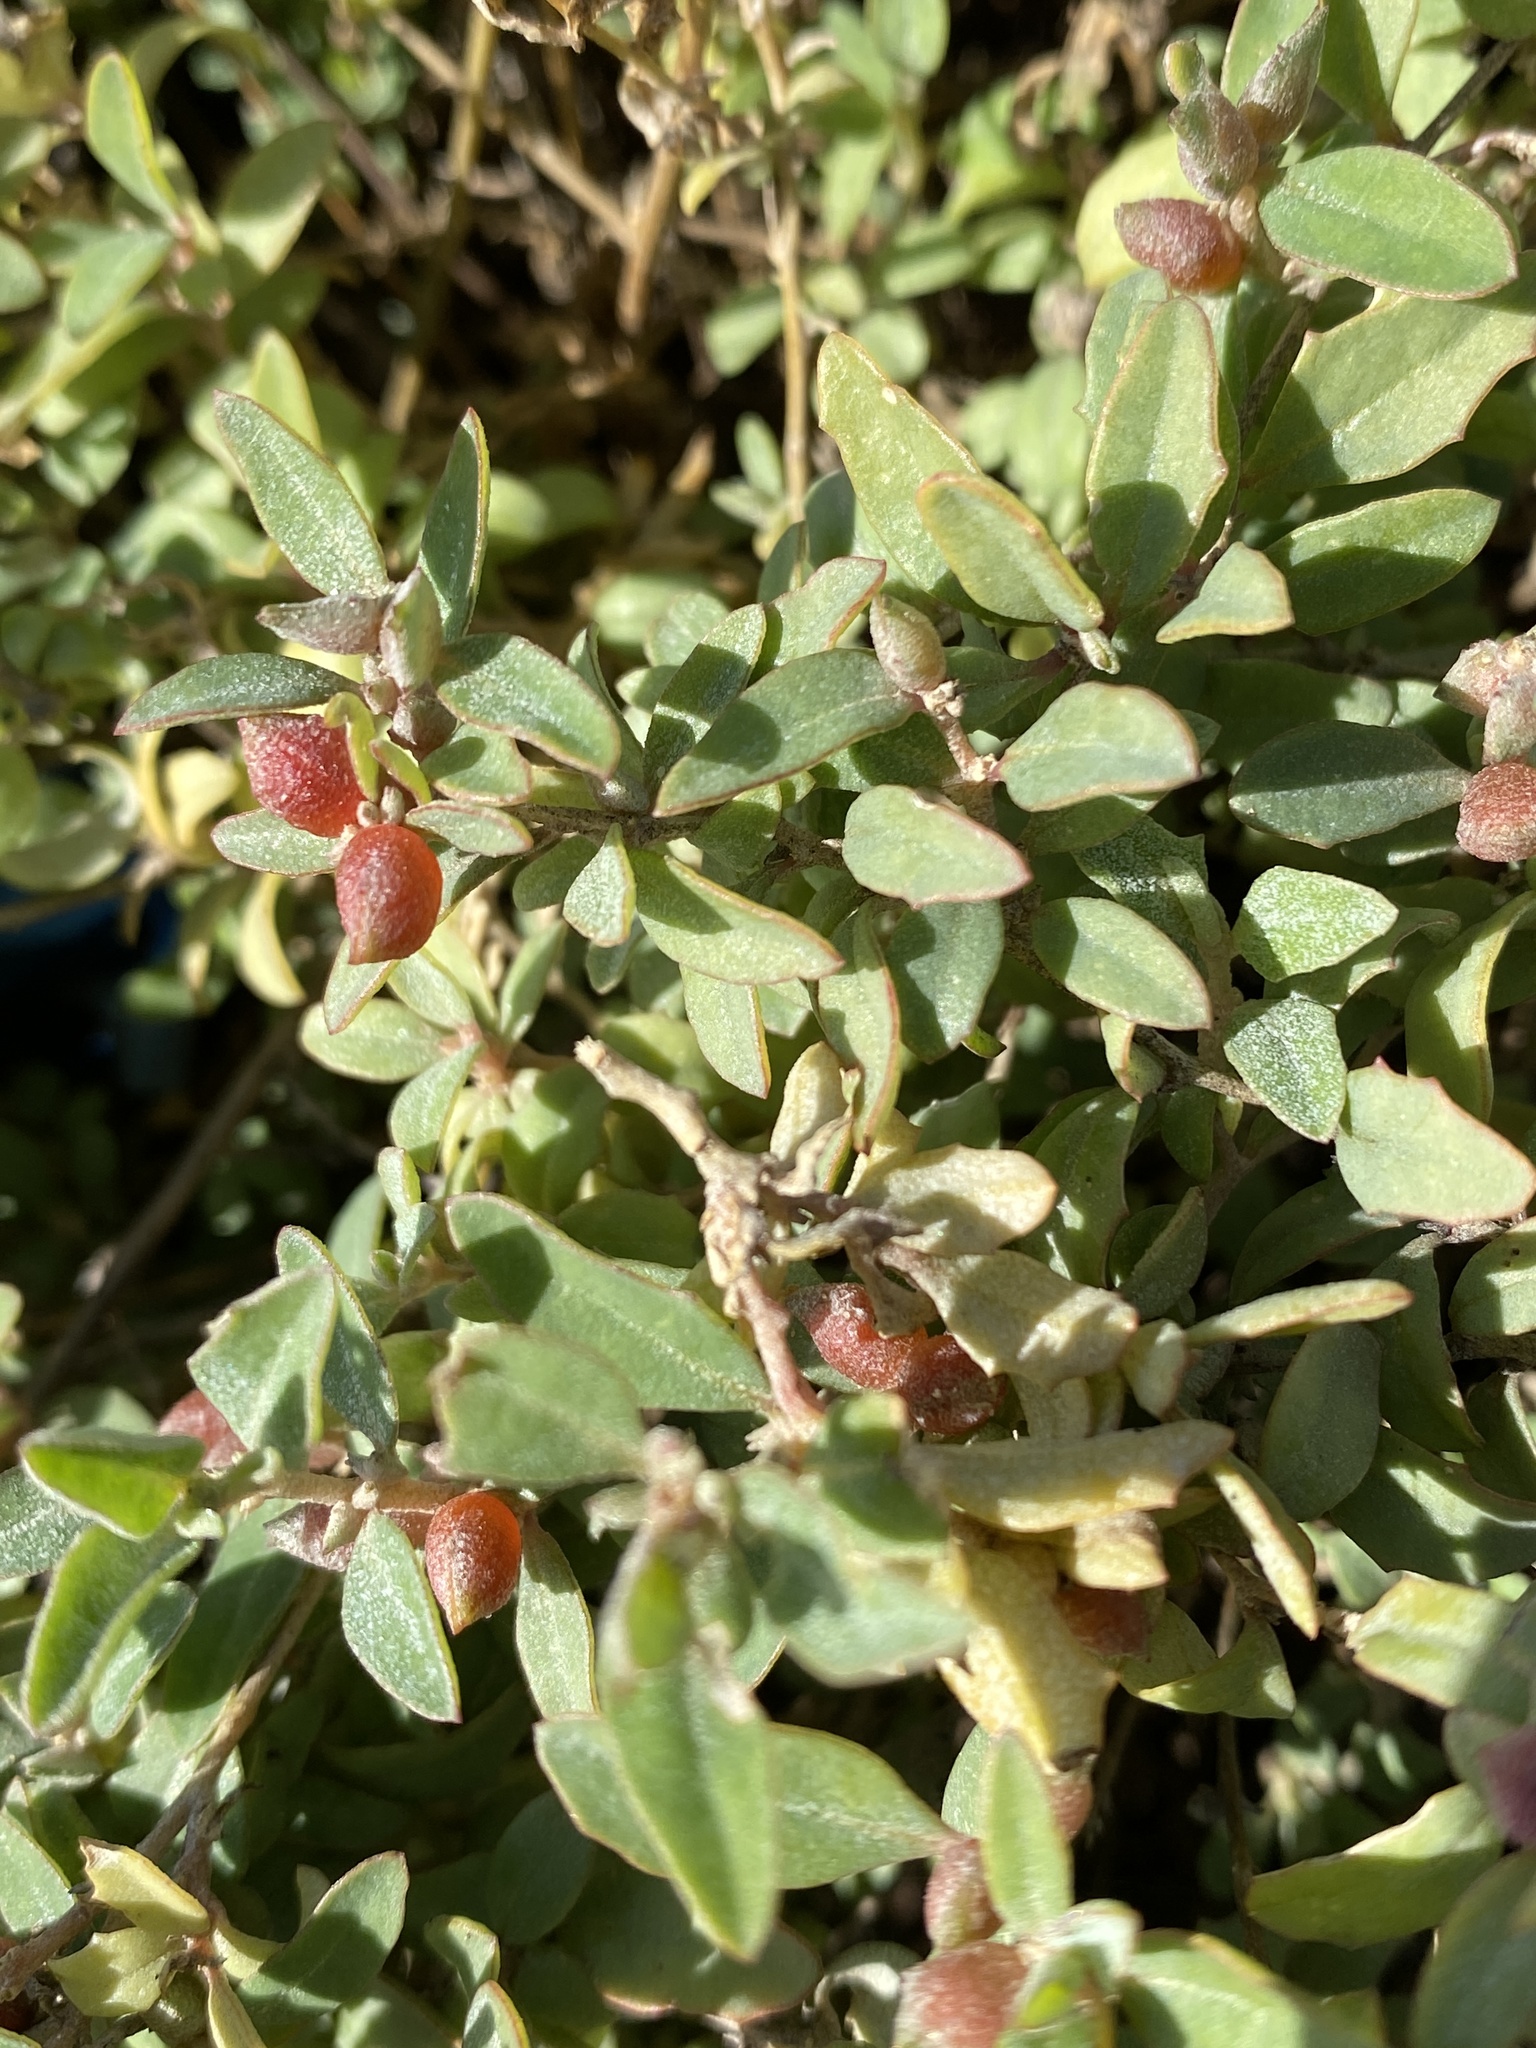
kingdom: Plantae
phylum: Tracheophyta
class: Magnoliopsida
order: Caryophyllales
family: Amaranthaceae
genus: Atriplex
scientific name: Atriplex semibaccata
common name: Australian saltbush
